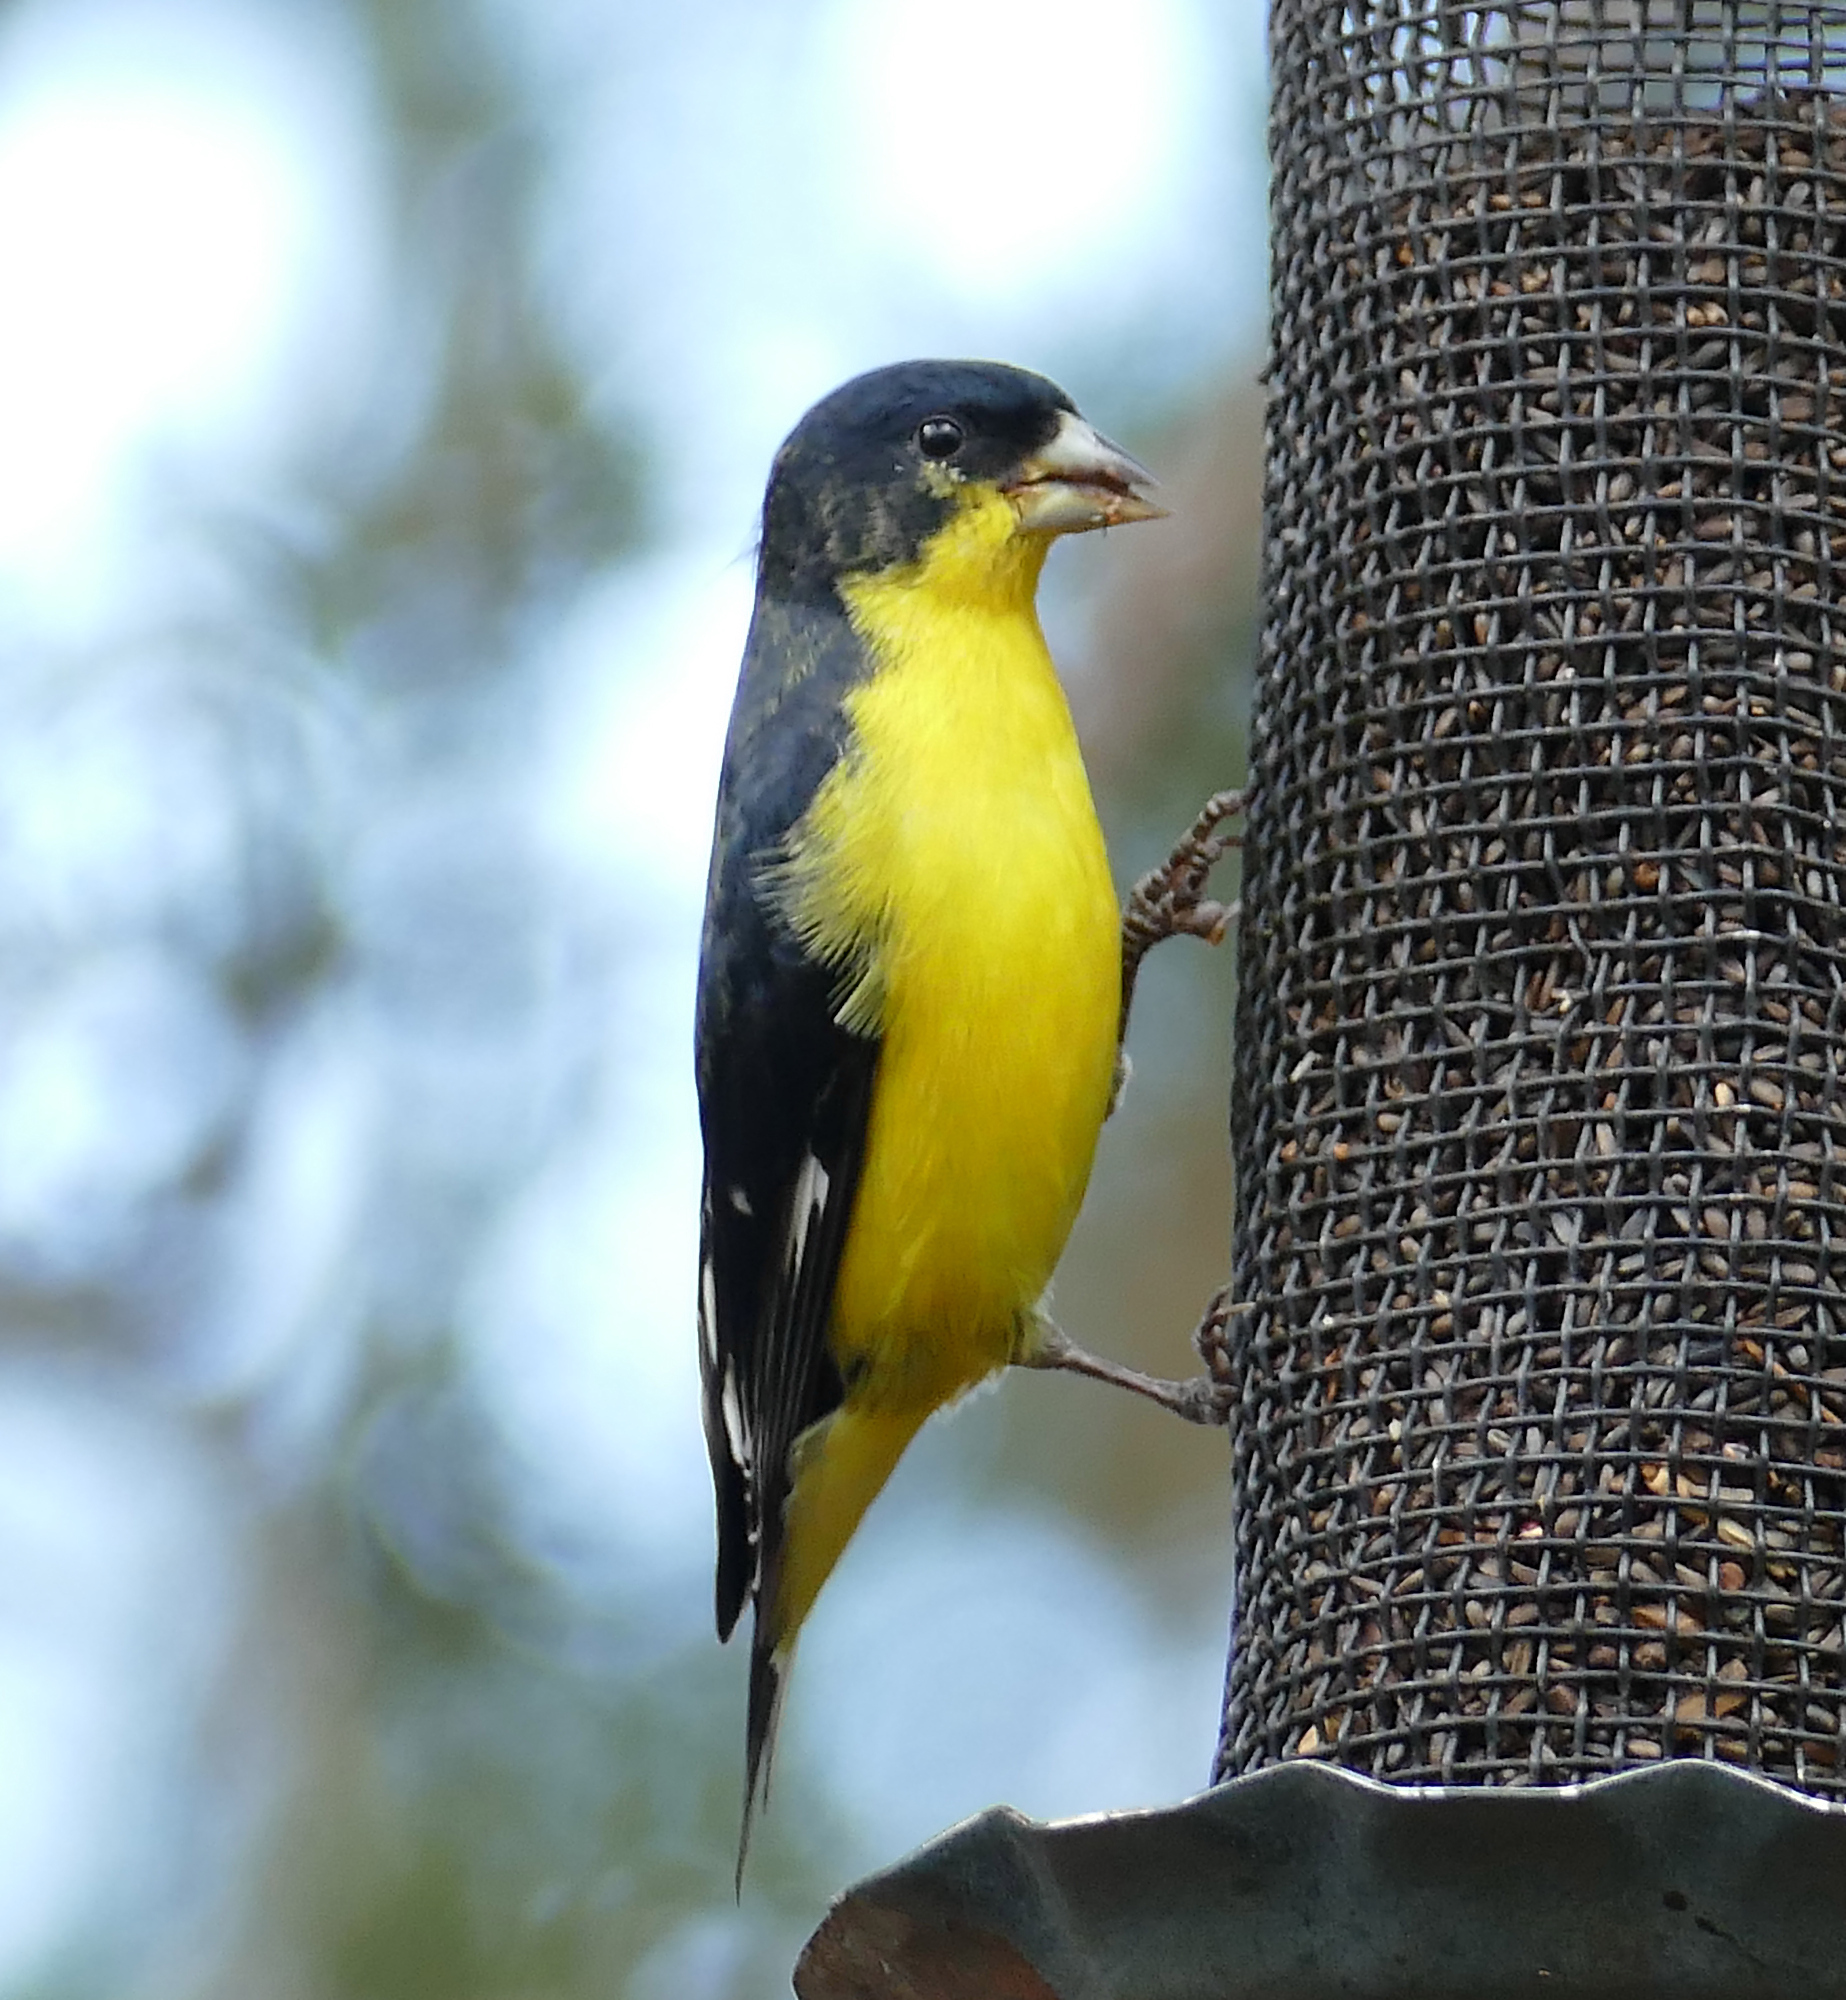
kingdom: Animalia
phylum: Chordata
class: Aves
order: Passeriformes
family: Fringillidae
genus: Spinus
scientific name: Spinus psaltria
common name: Lesser goldfinch
